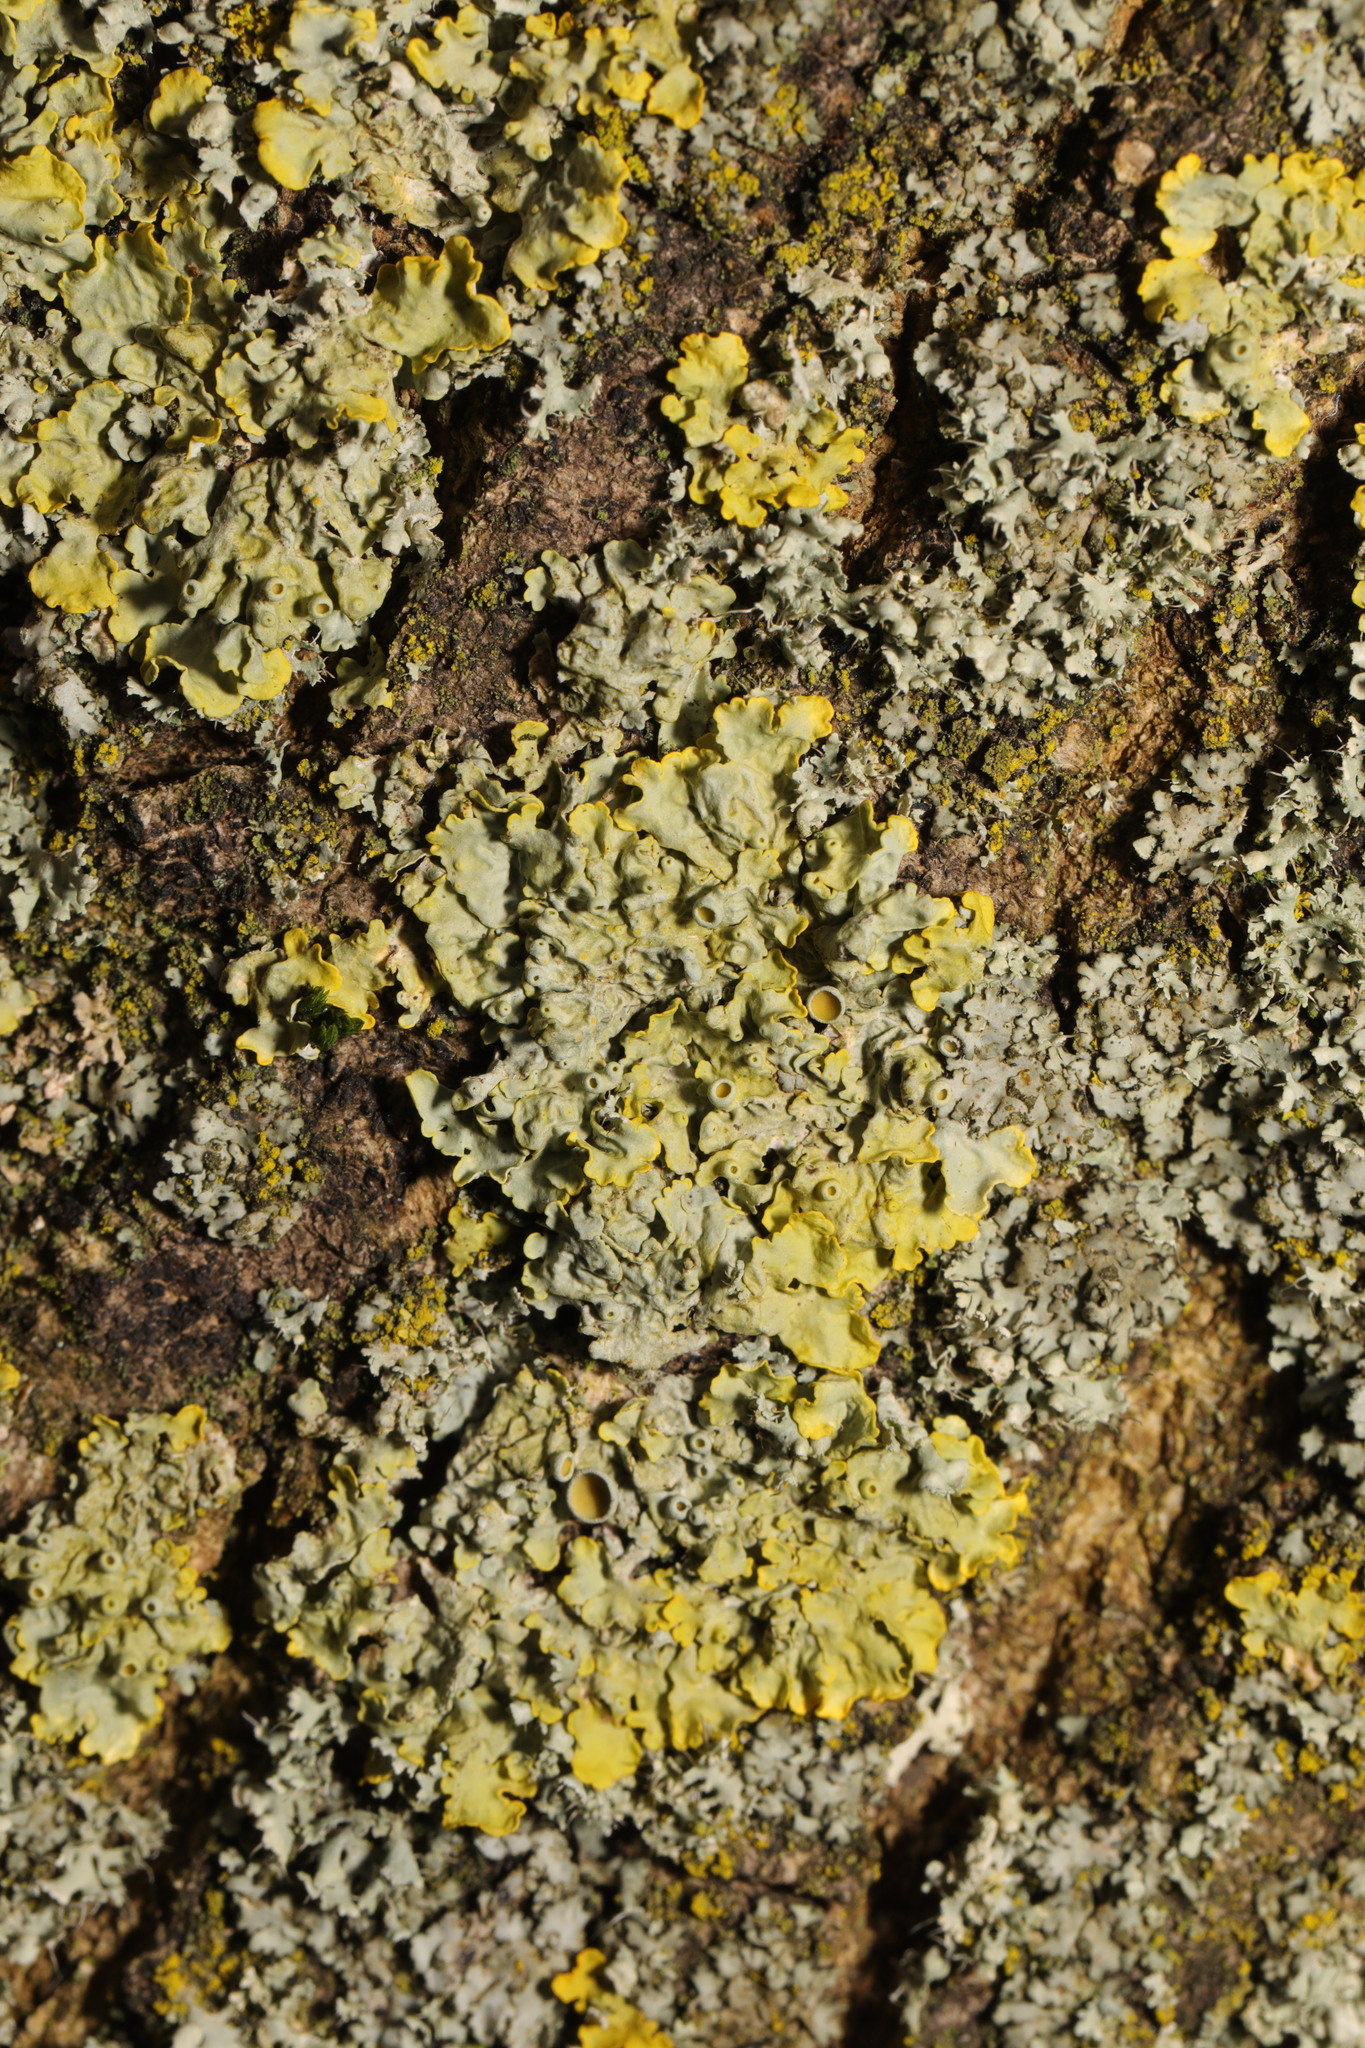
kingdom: Fungi
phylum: Ascomycota
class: Lecanoromycetes
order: Teloschistales
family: Teloschistaceae
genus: Xanthoria
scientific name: Xanthoria parietina
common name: Common orange lichen
